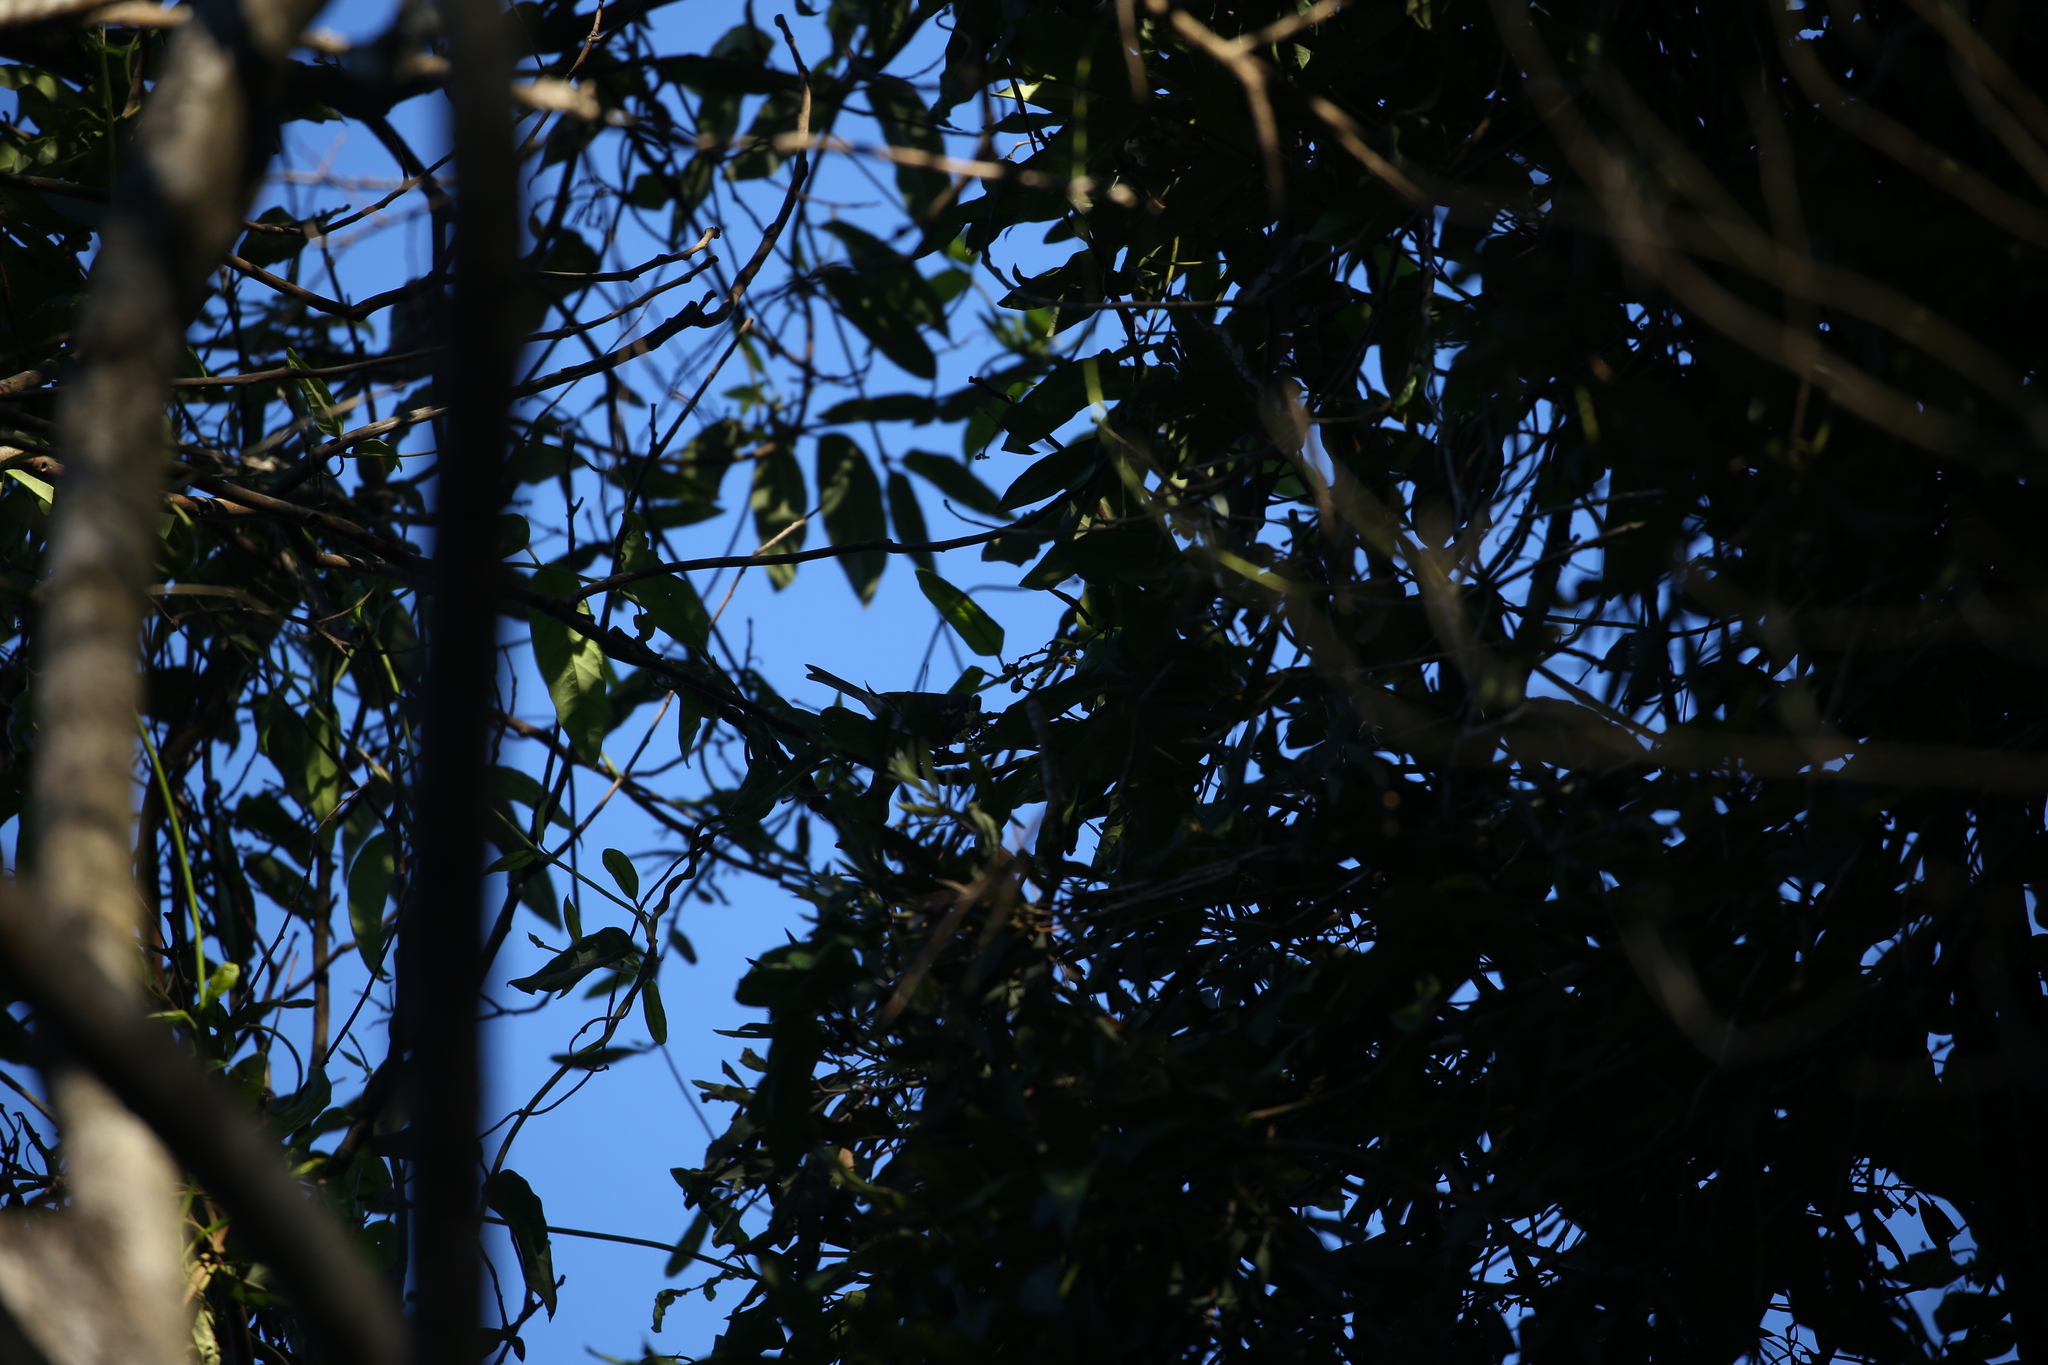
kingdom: Animalia
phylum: Chordata
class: Aves
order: Passeriformes
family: Meliphagidae
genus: Caligavis
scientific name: Caligavis chrysops
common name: Yellow-faced honeyeater
